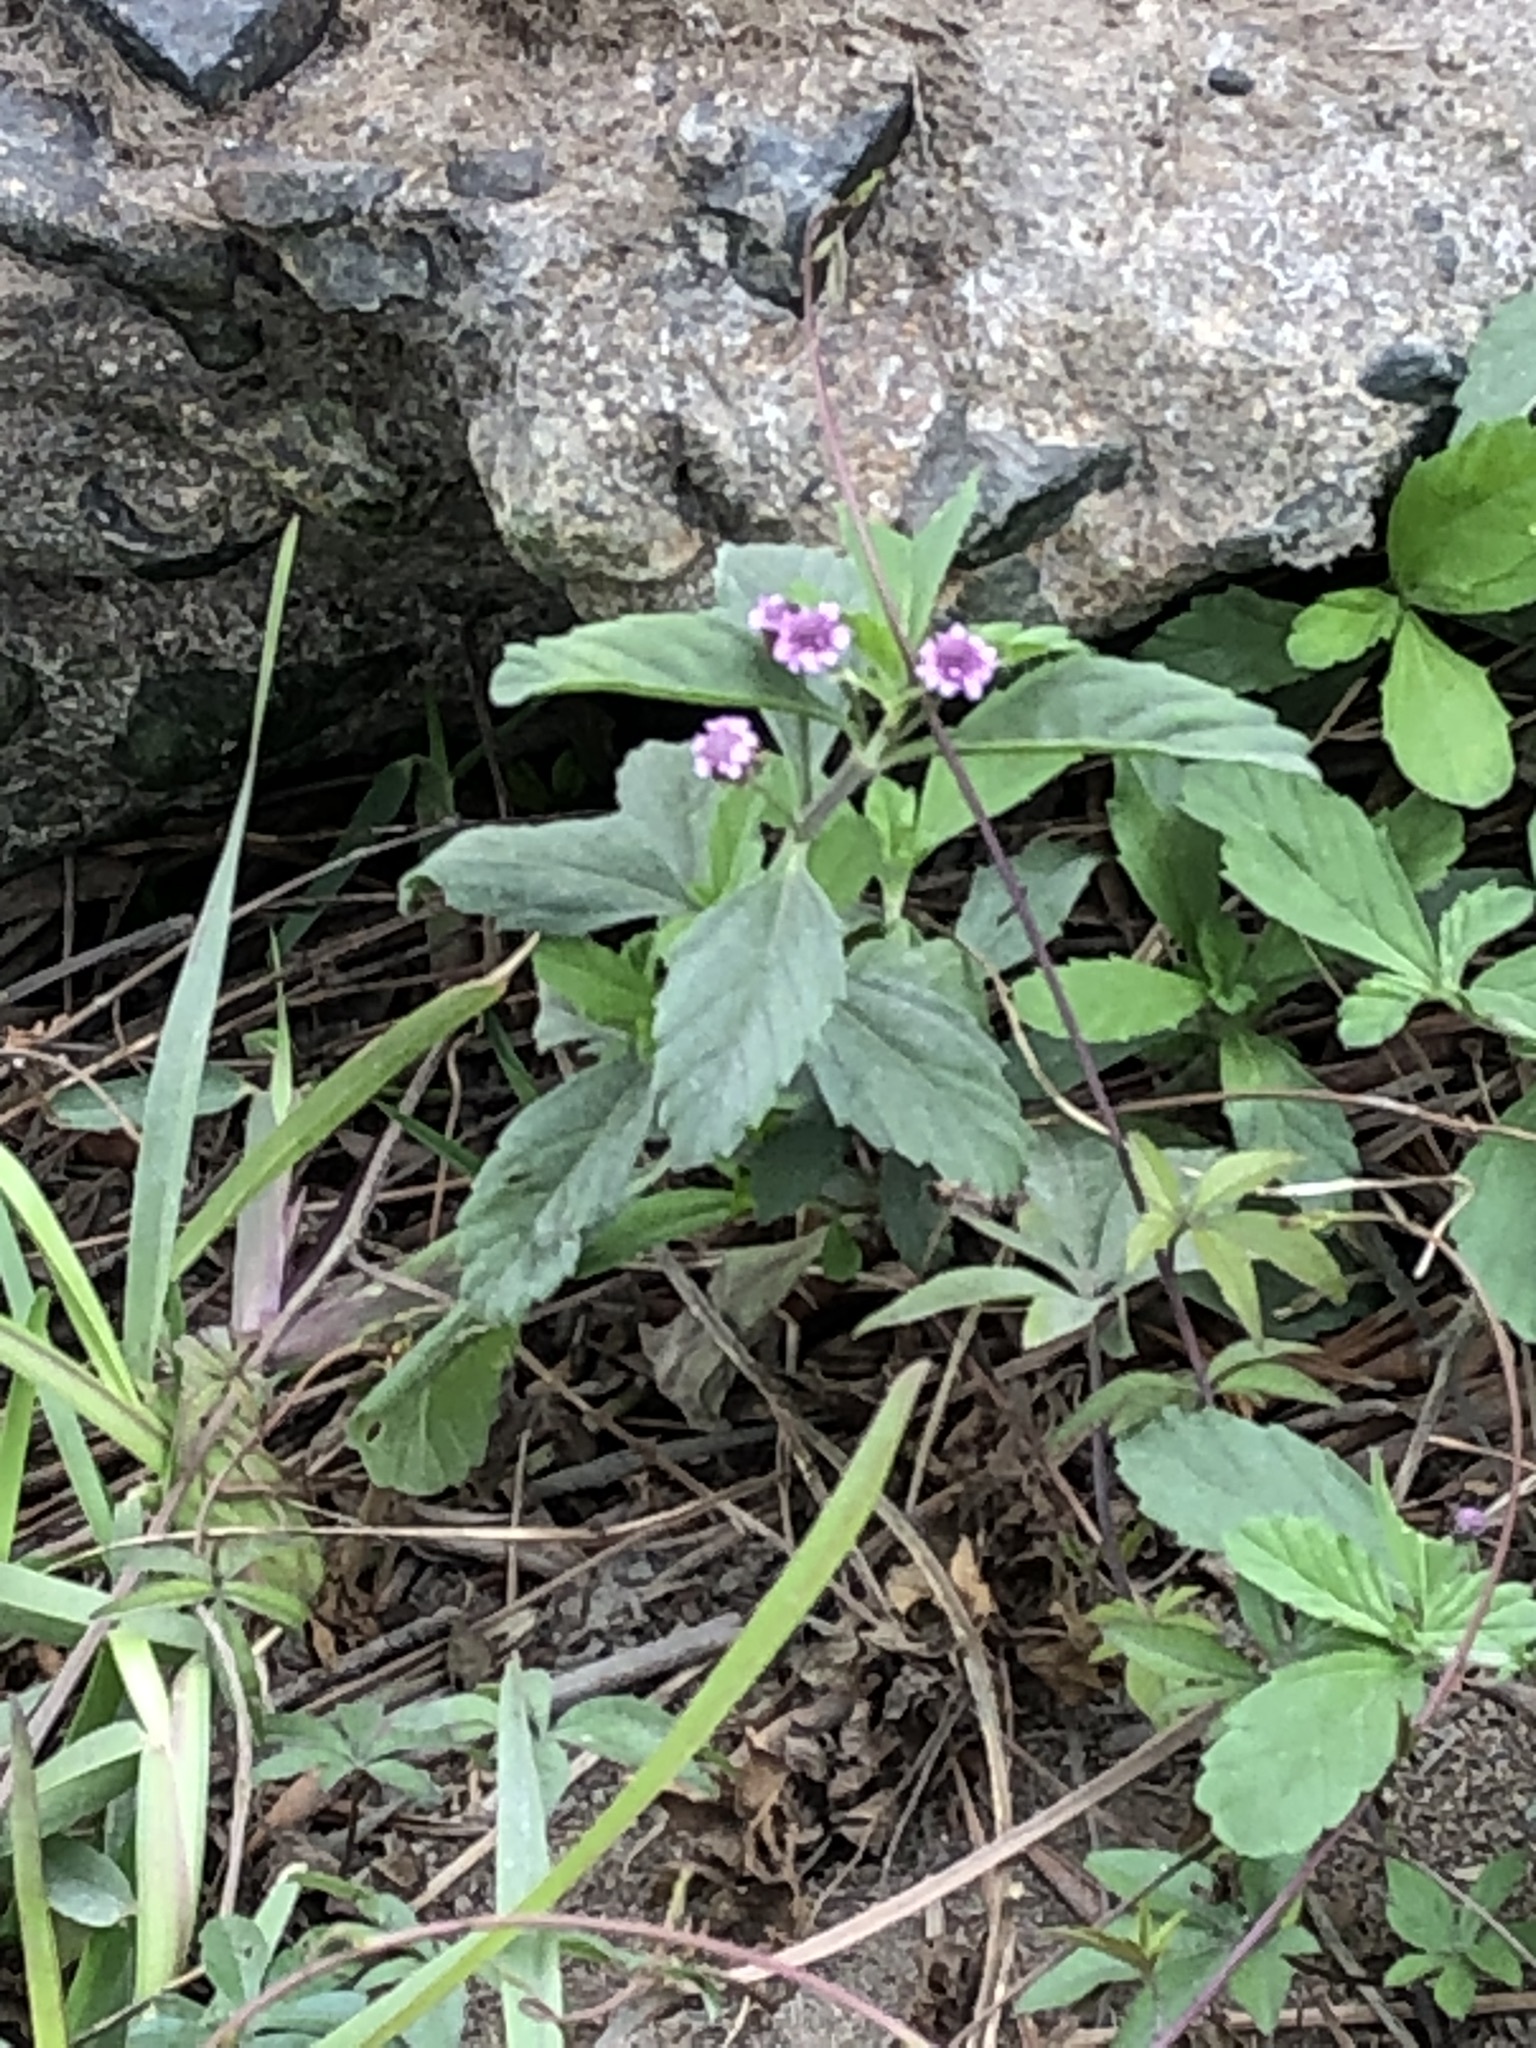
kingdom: Plantae
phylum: Tracheophyta
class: Magnoliopsida
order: Lamiales
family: Verbenaceae
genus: Phyla
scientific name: Phyla nodiflora
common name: Frogfruit
